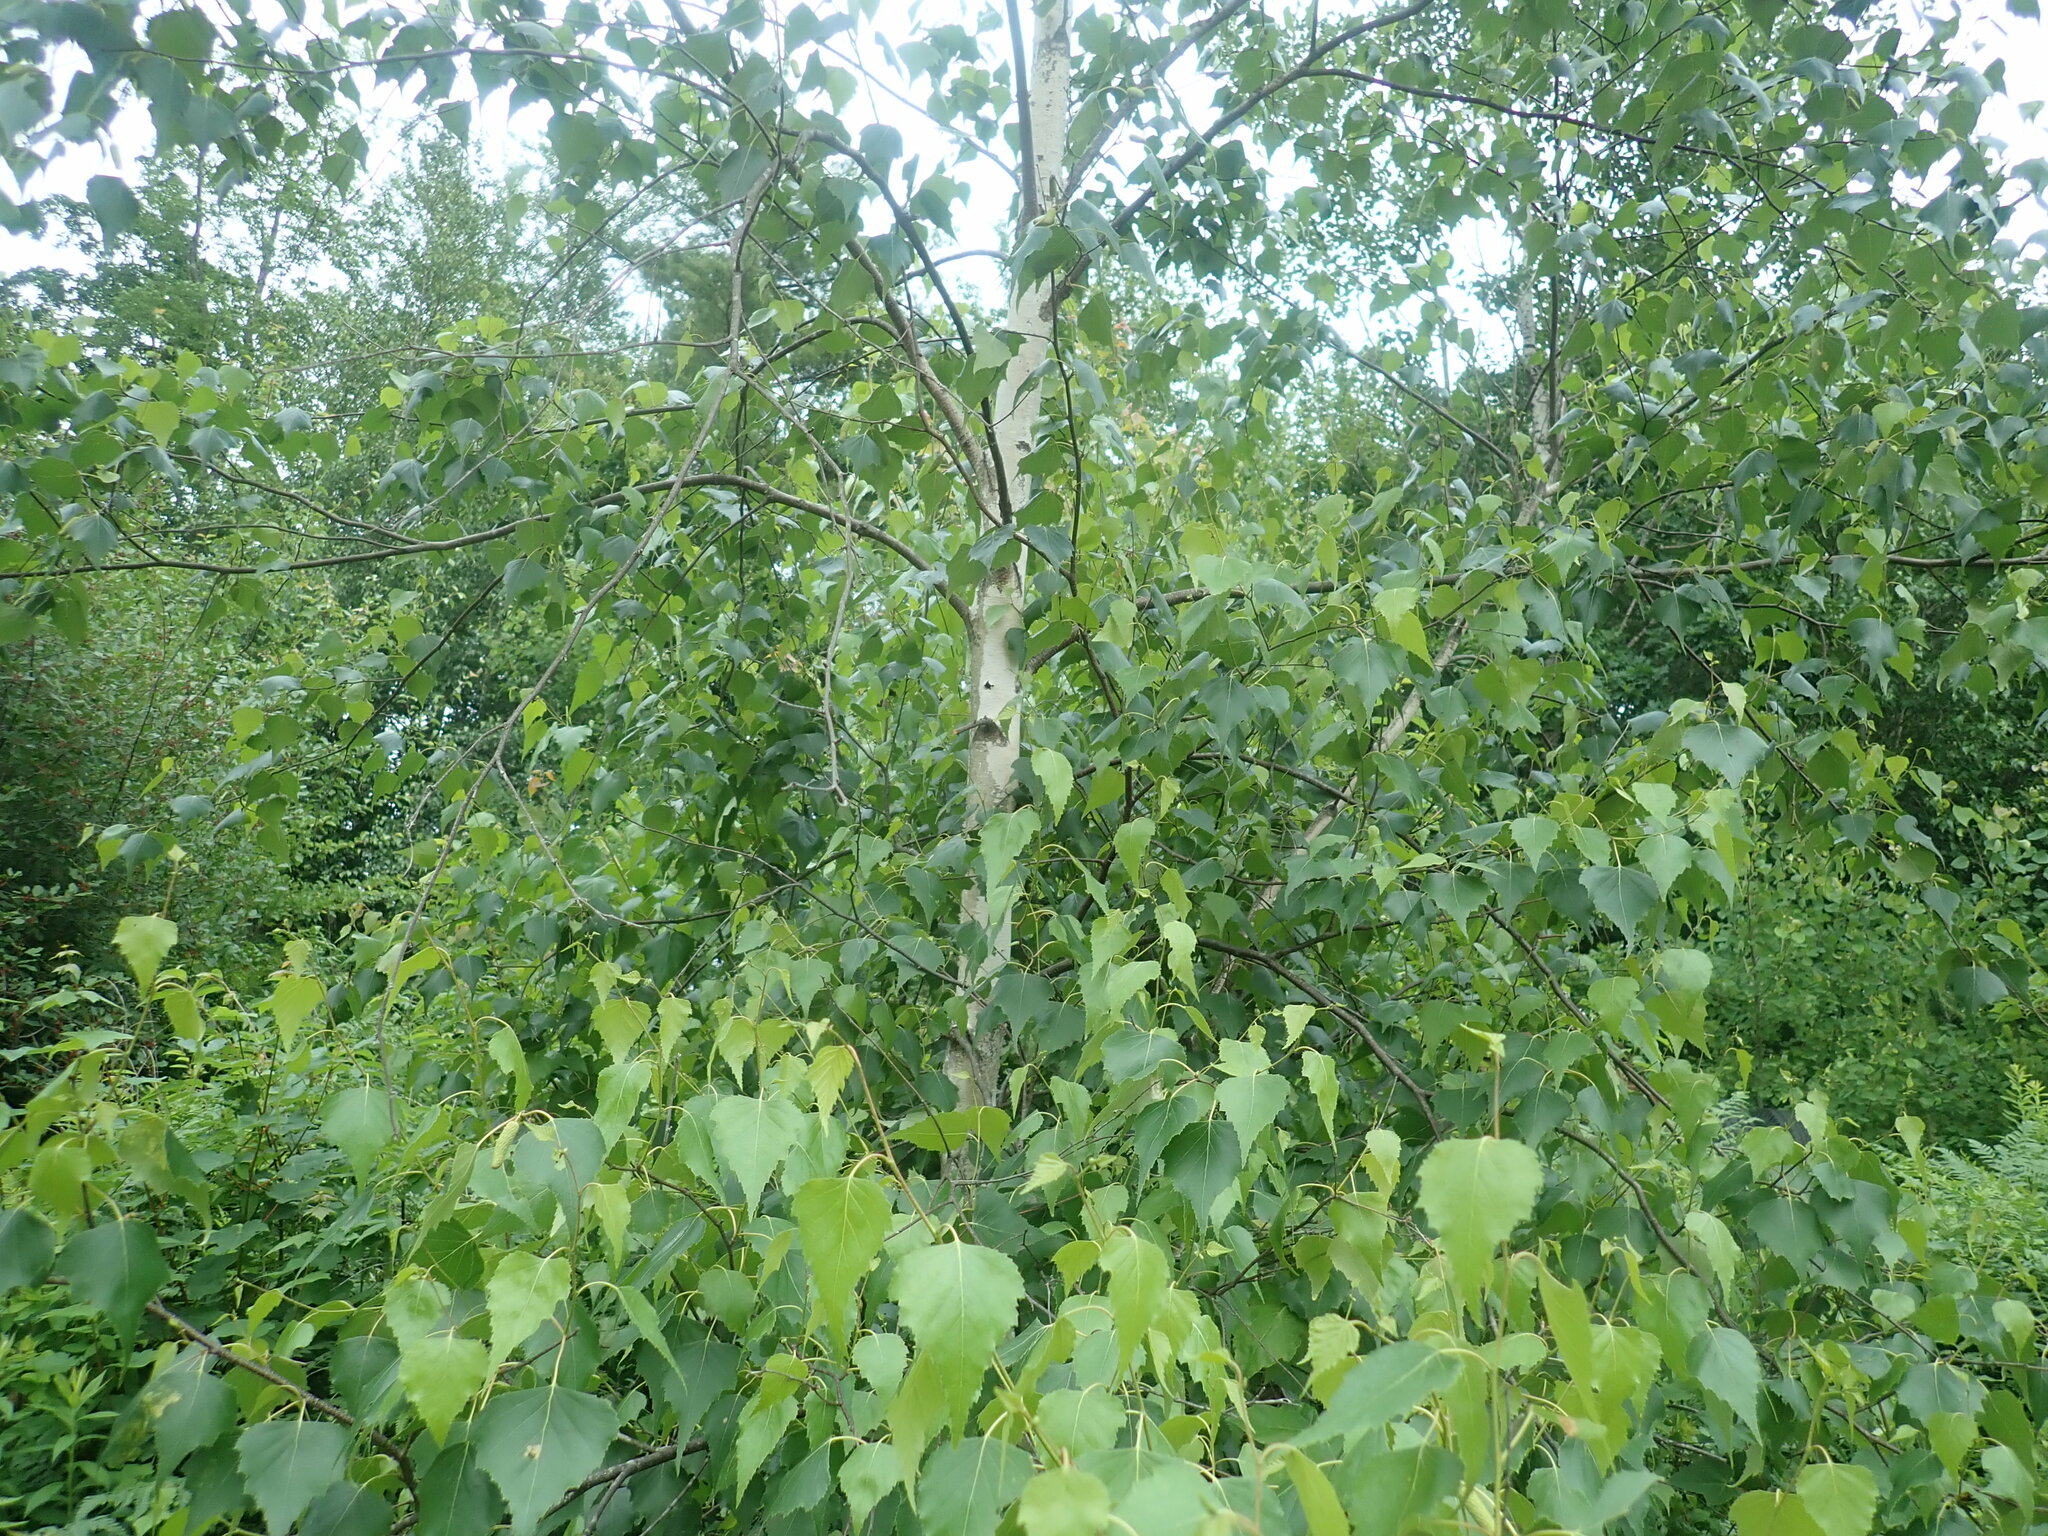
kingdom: Plantae
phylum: Tracheophyta
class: Magnoliopsida
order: Fagales
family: Betulaceae
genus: Betula
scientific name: Betula populifolia
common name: Fire birch
